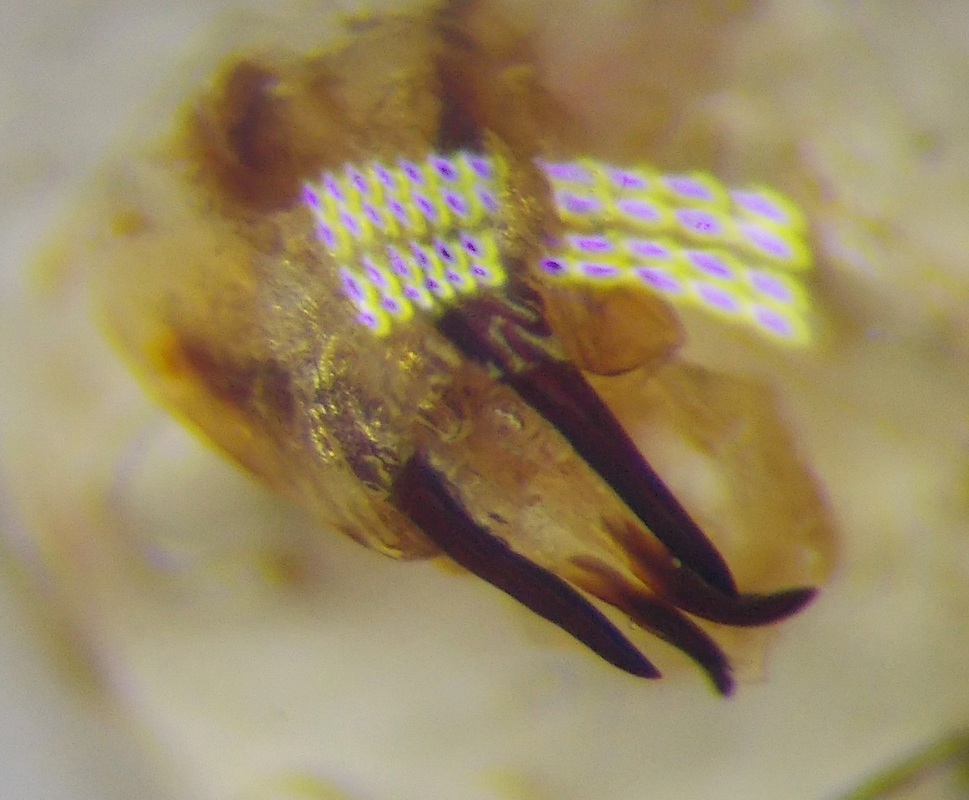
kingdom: Animalia
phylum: Arthropoda
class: Insecta
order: Hemiptera
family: Scutelleridae
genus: Eurygaster
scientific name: Eurygaster integriceps
